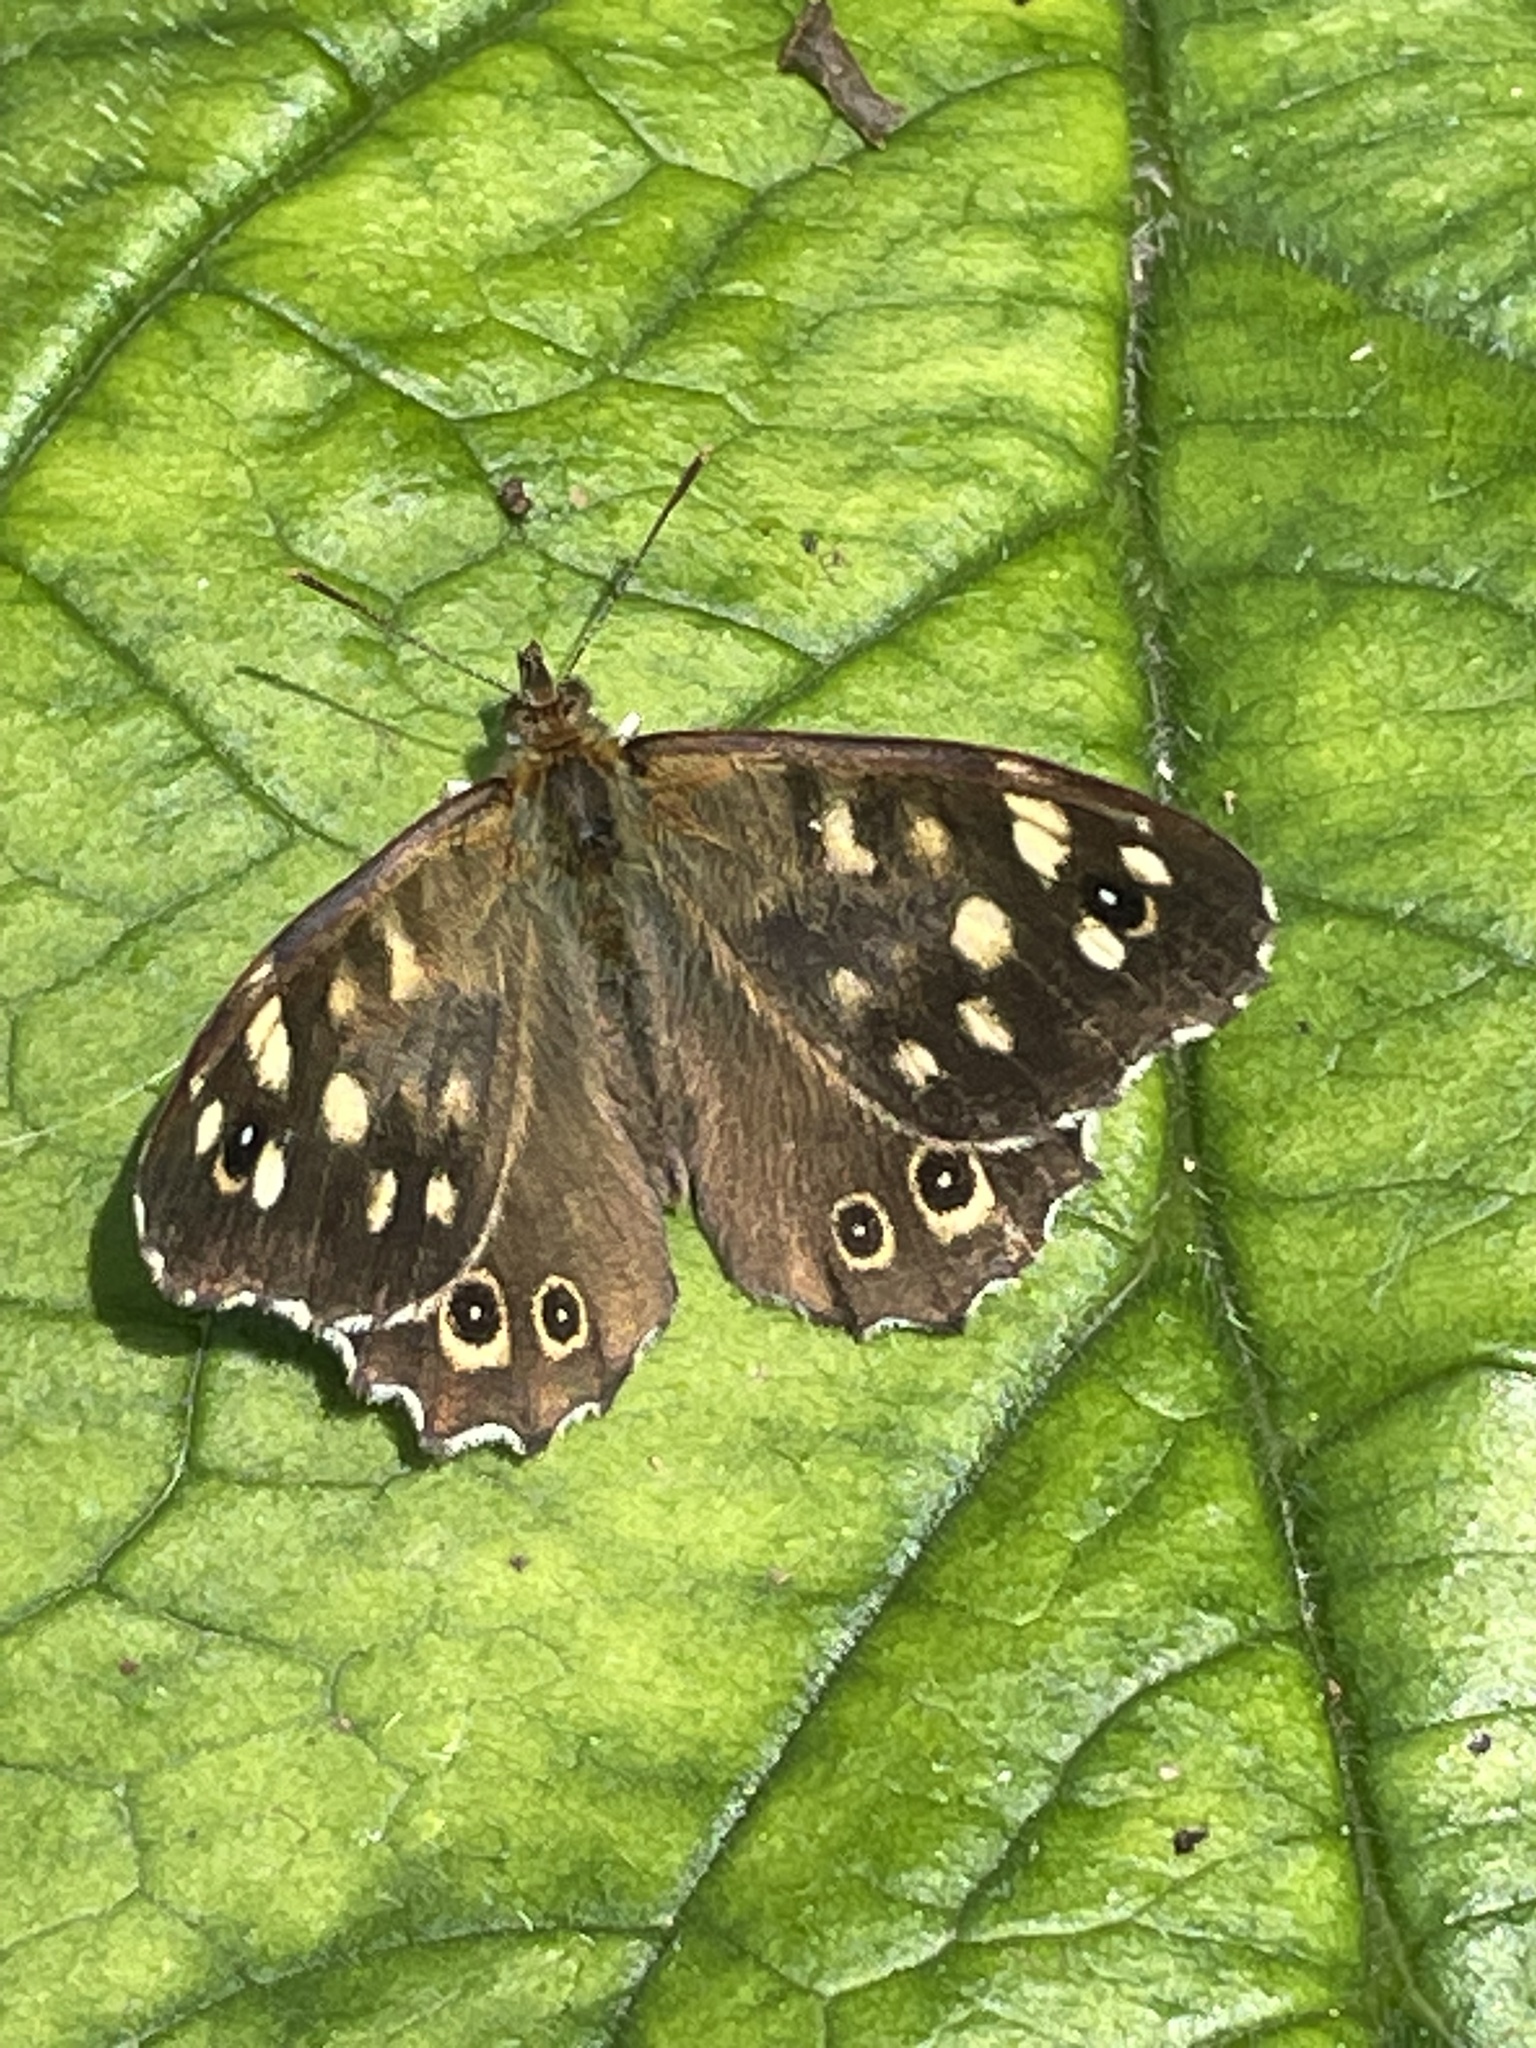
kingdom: Animalia
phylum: Arthropoda
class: Insecta
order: Lepidoptera
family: Nymphalidae
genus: Pararge
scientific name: Pararge aegeria
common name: Speckled wood
